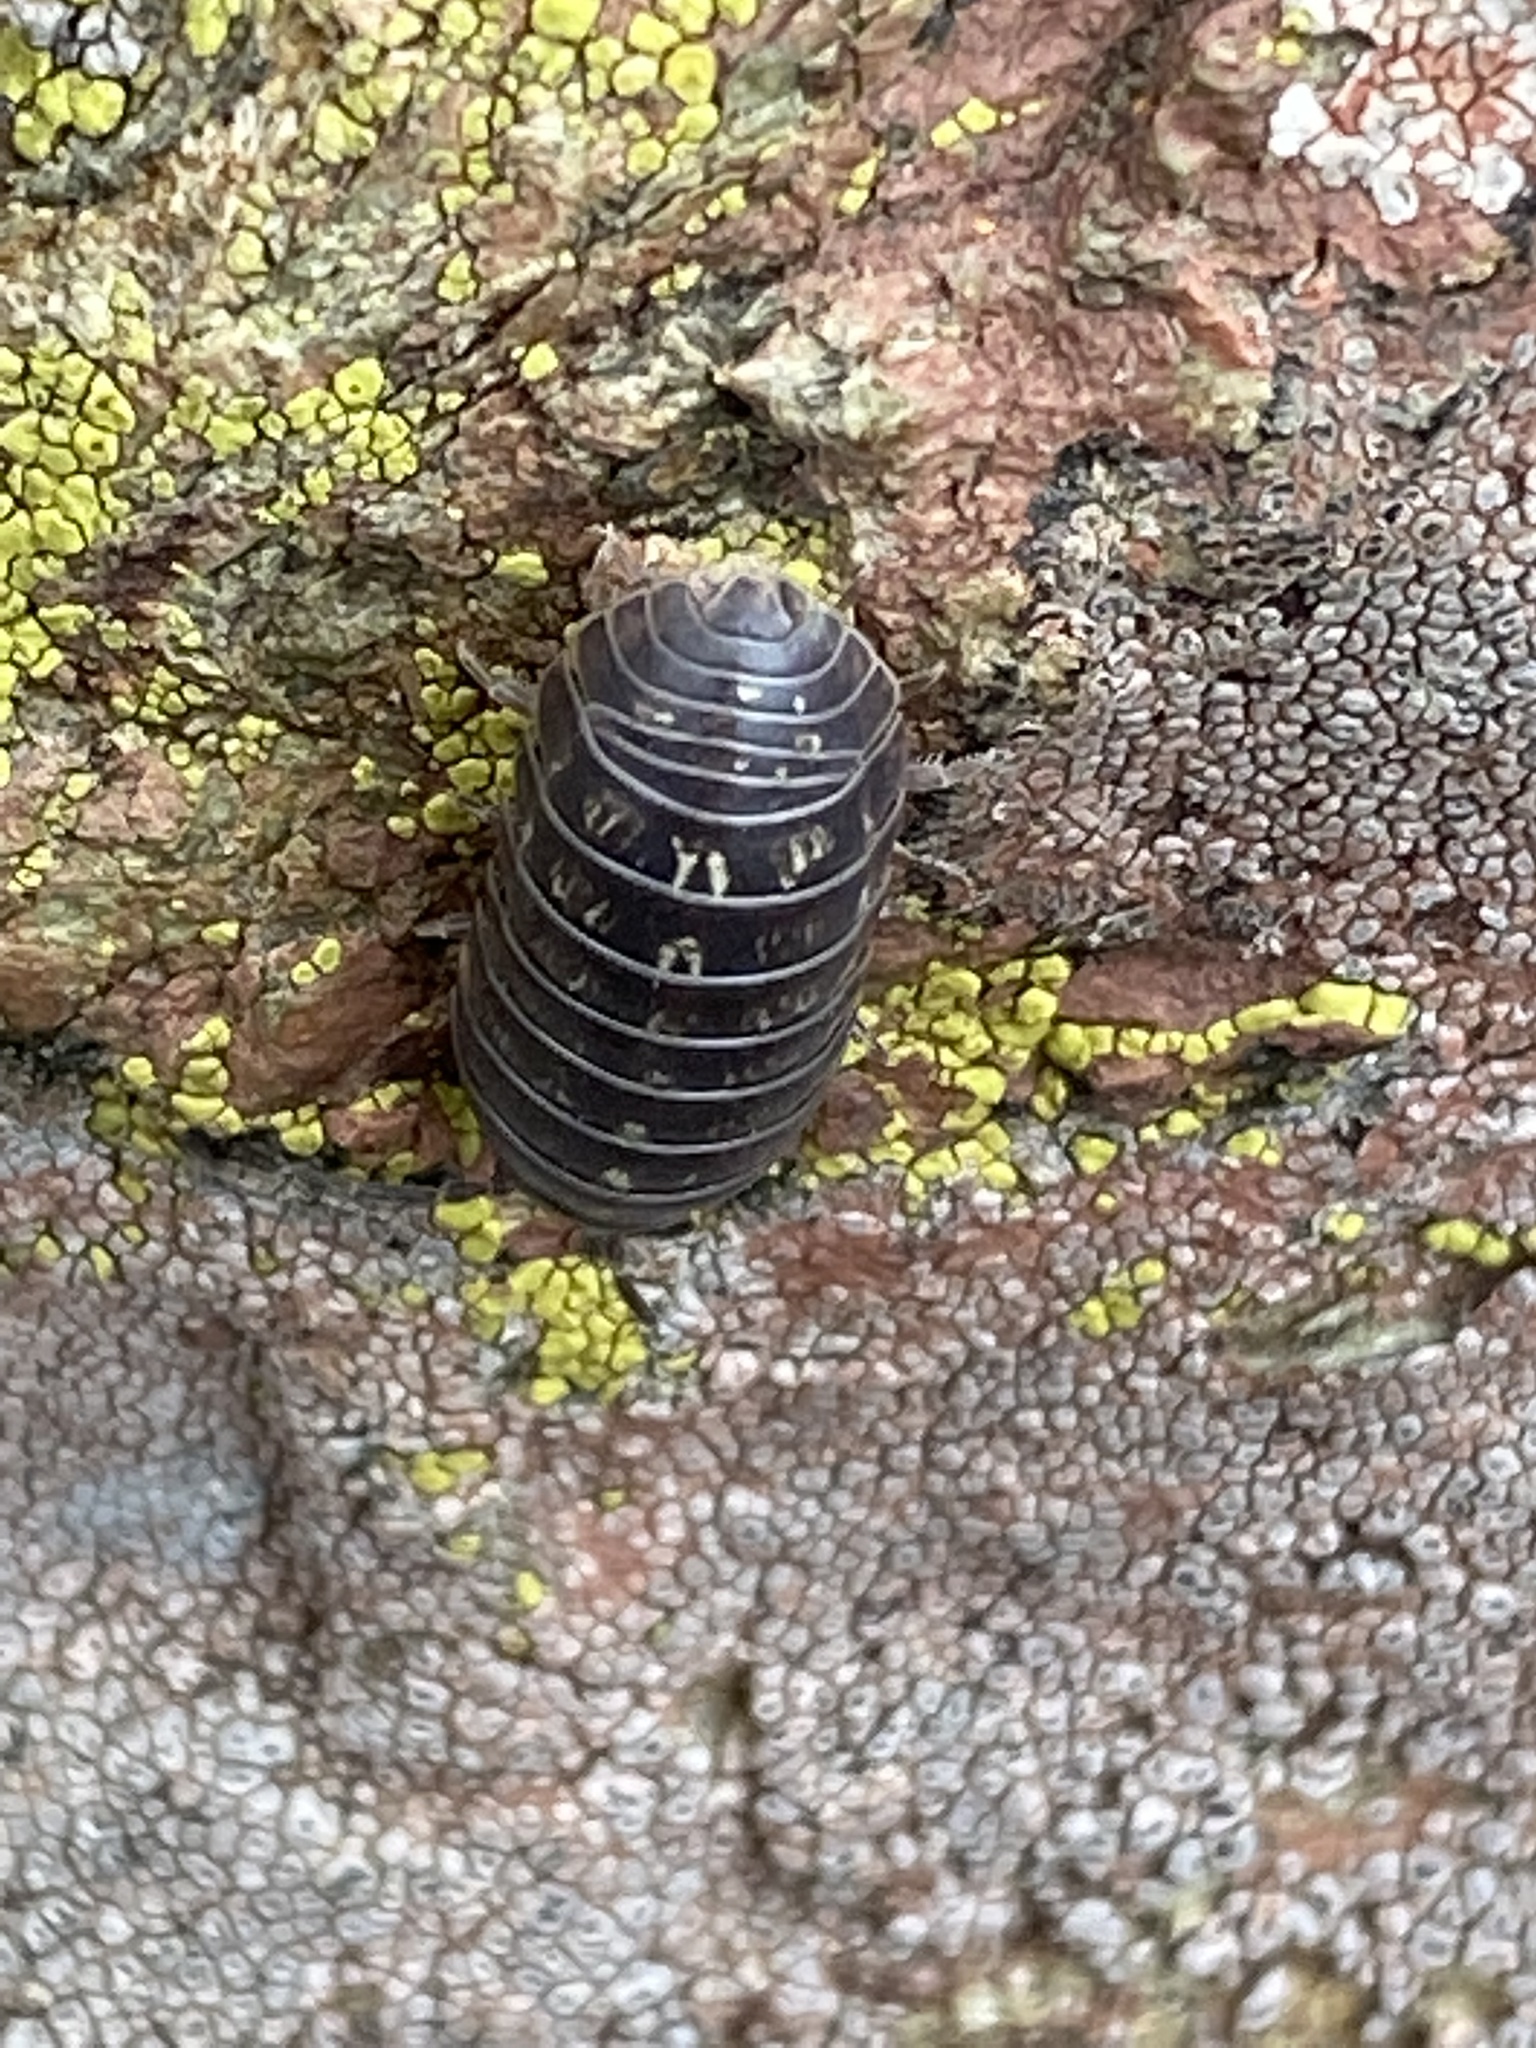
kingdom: Animalia
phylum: Arthropoda
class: Malacostraca
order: Isopoda
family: Armadillidiidae
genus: Armadillidium
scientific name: Armadillidium vulgare
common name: Common pill woodlouse
